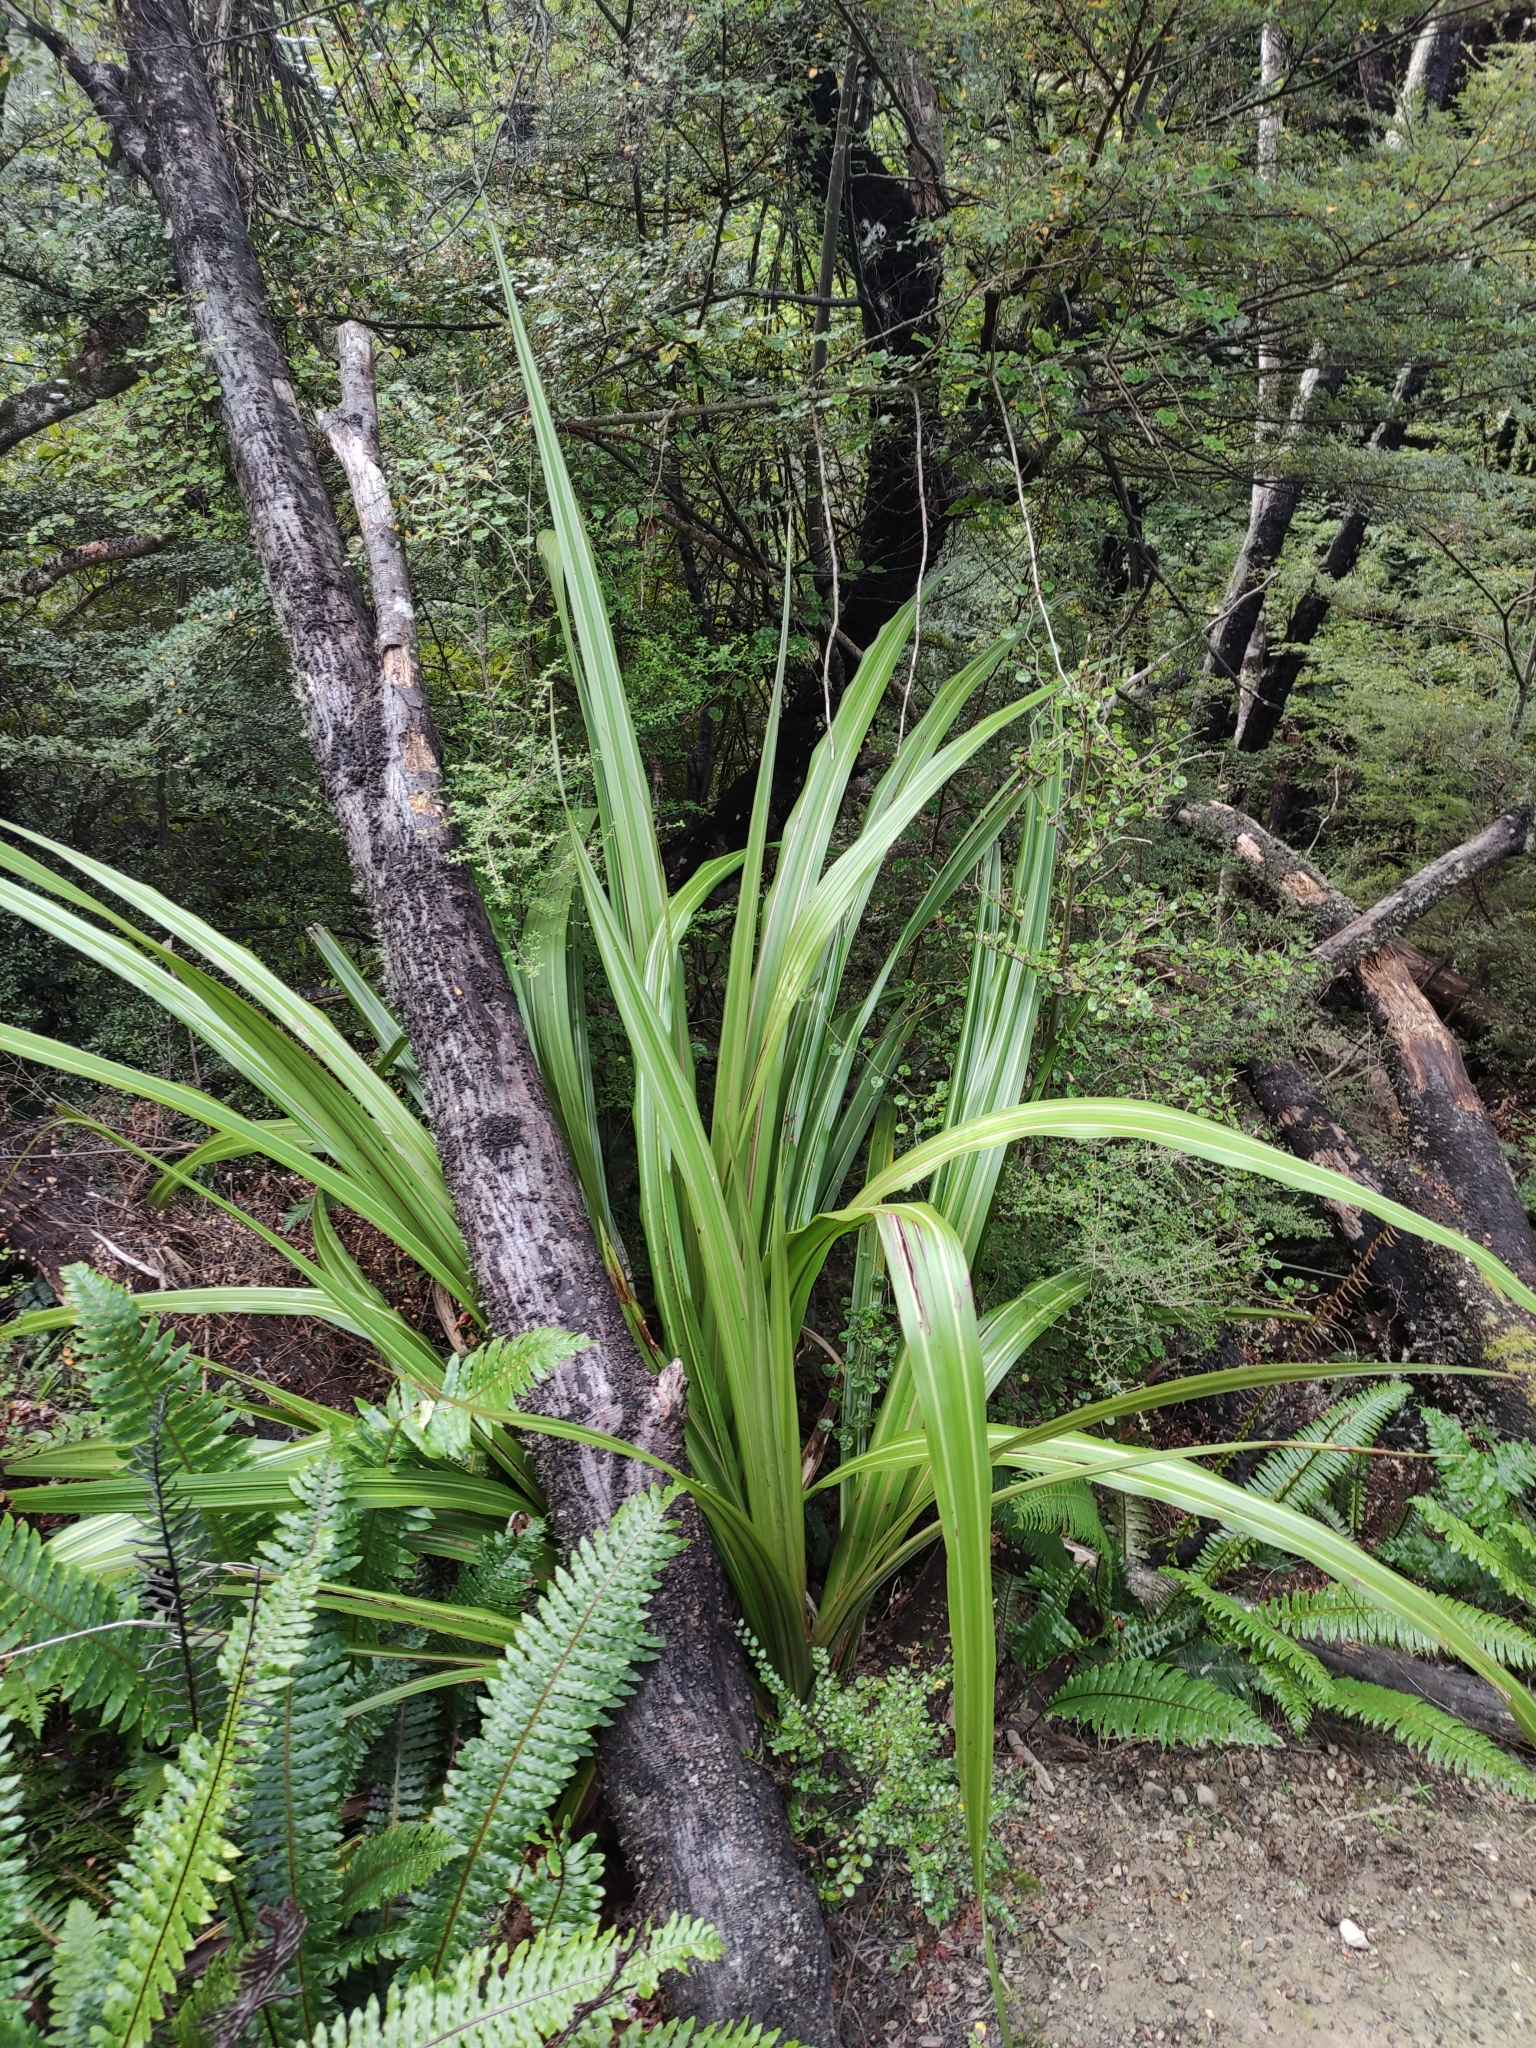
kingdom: Plantae
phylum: Tracheophyta
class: Liliopsida
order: Asparagales
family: Asteliaceae
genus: Astelia
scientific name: Astelia fragrans
